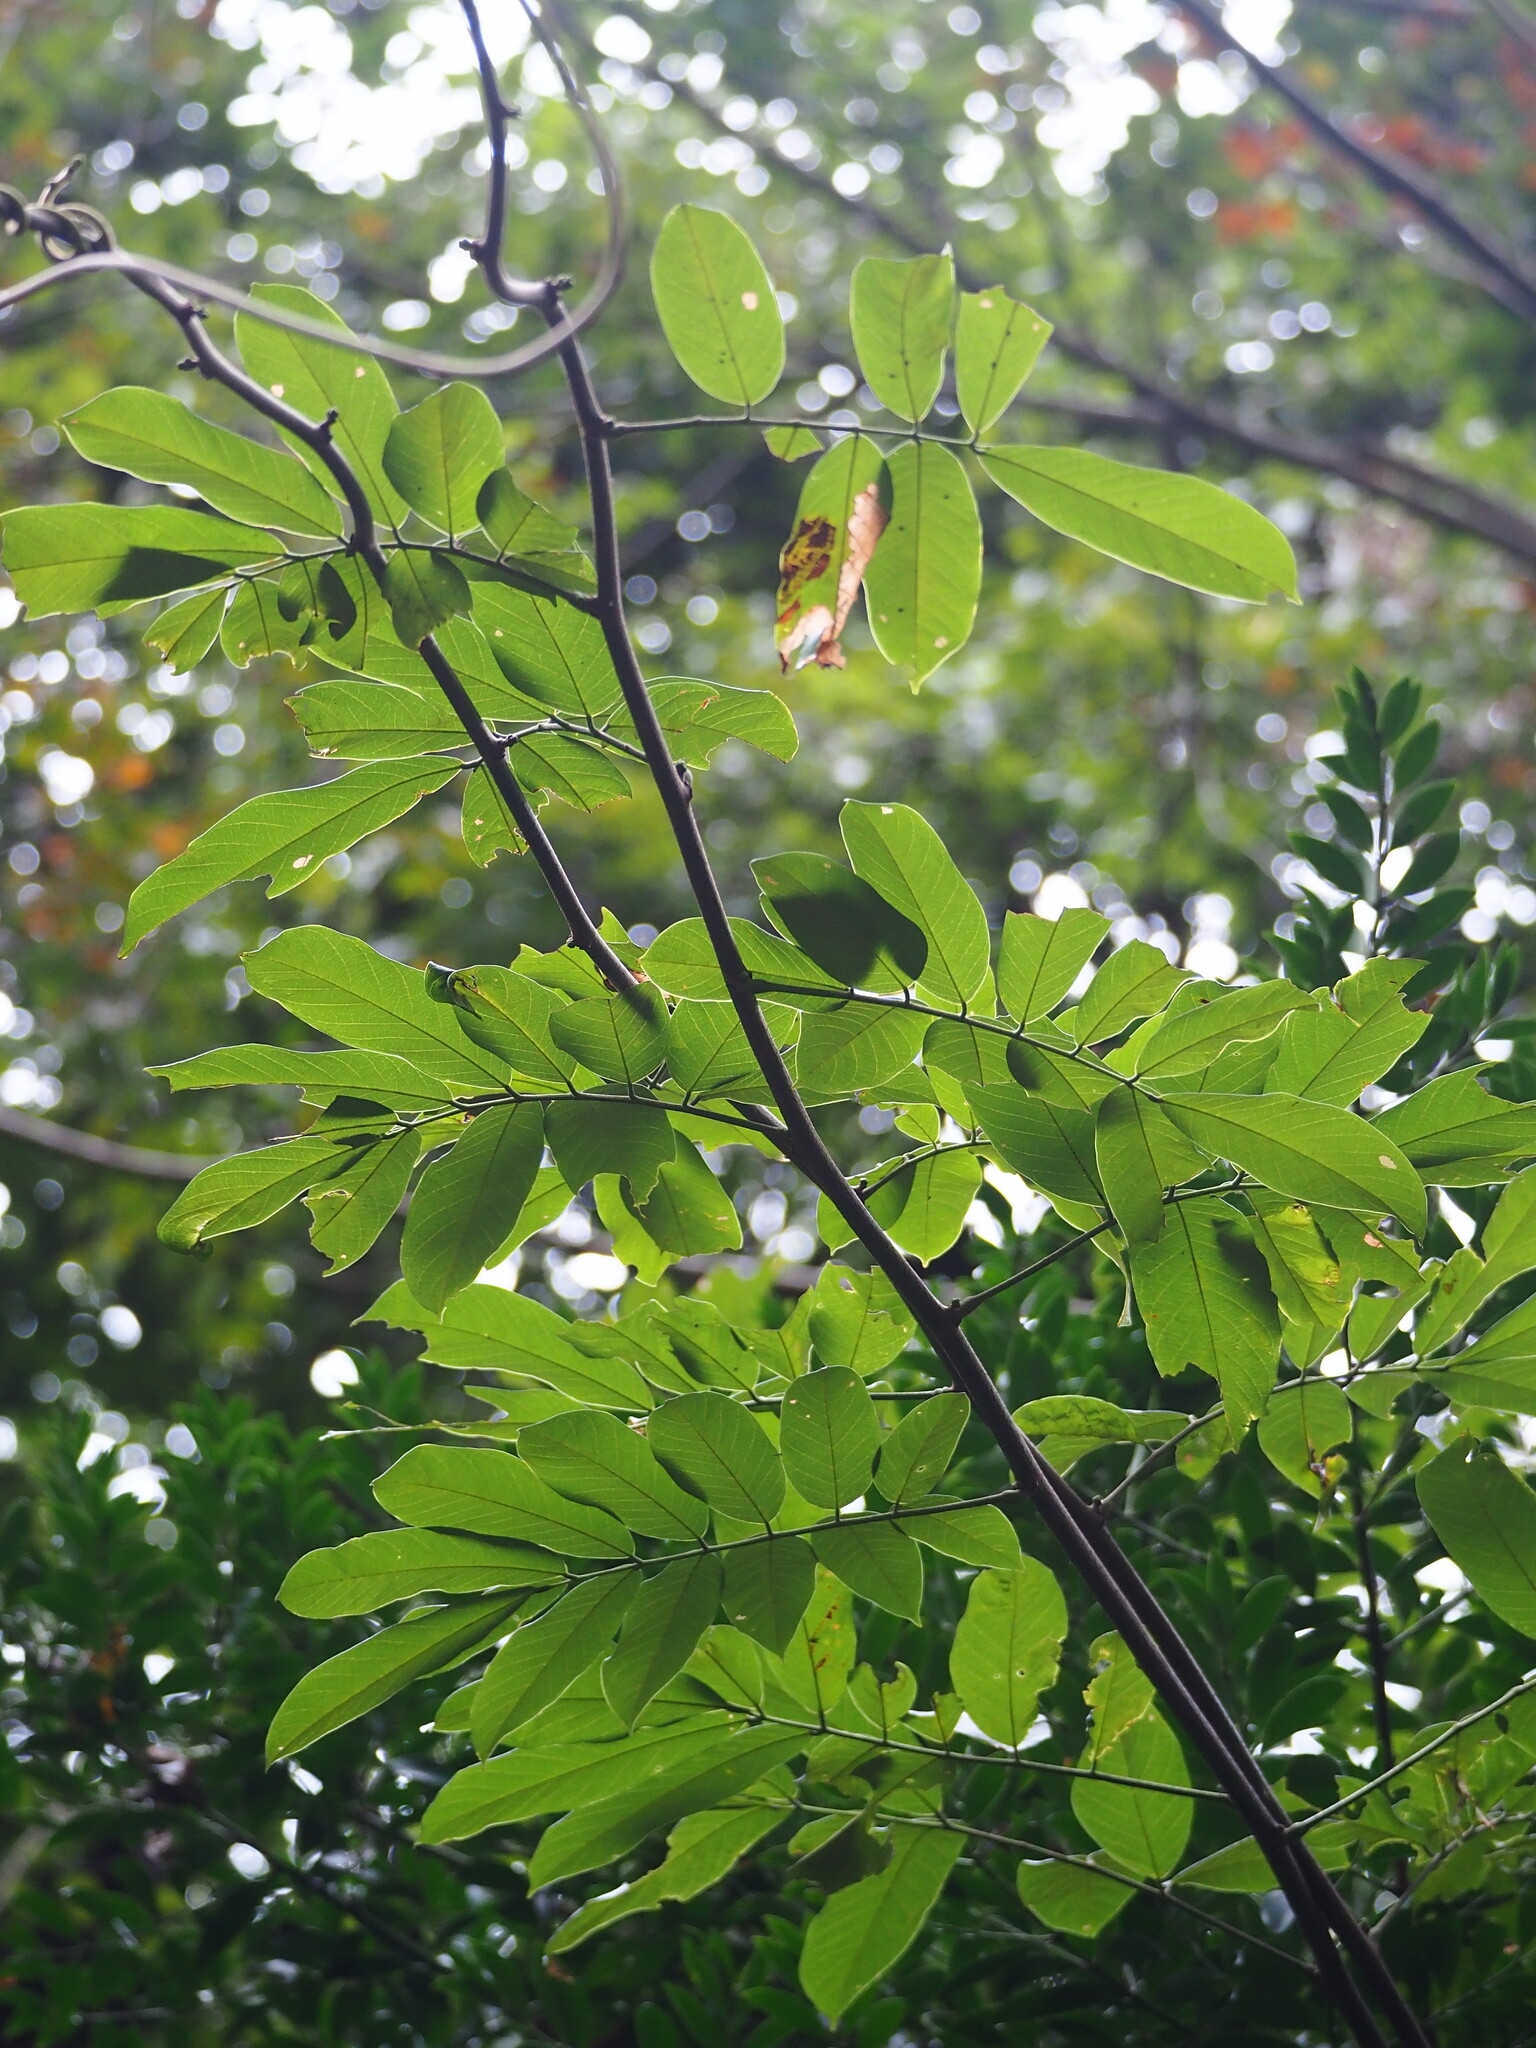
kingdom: Plantae
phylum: Tracheophyta
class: Magnoliopsida
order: Fabales
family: Fabaceae
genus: Millettia
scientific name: Millettia pachycarpa
